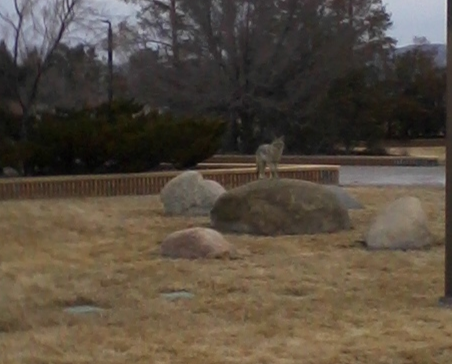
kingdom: Animalia
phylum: Chordata
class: Mammalia
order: Carnivora
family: Canidae
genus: Canis
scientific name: Canis latrans
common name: Coyote
